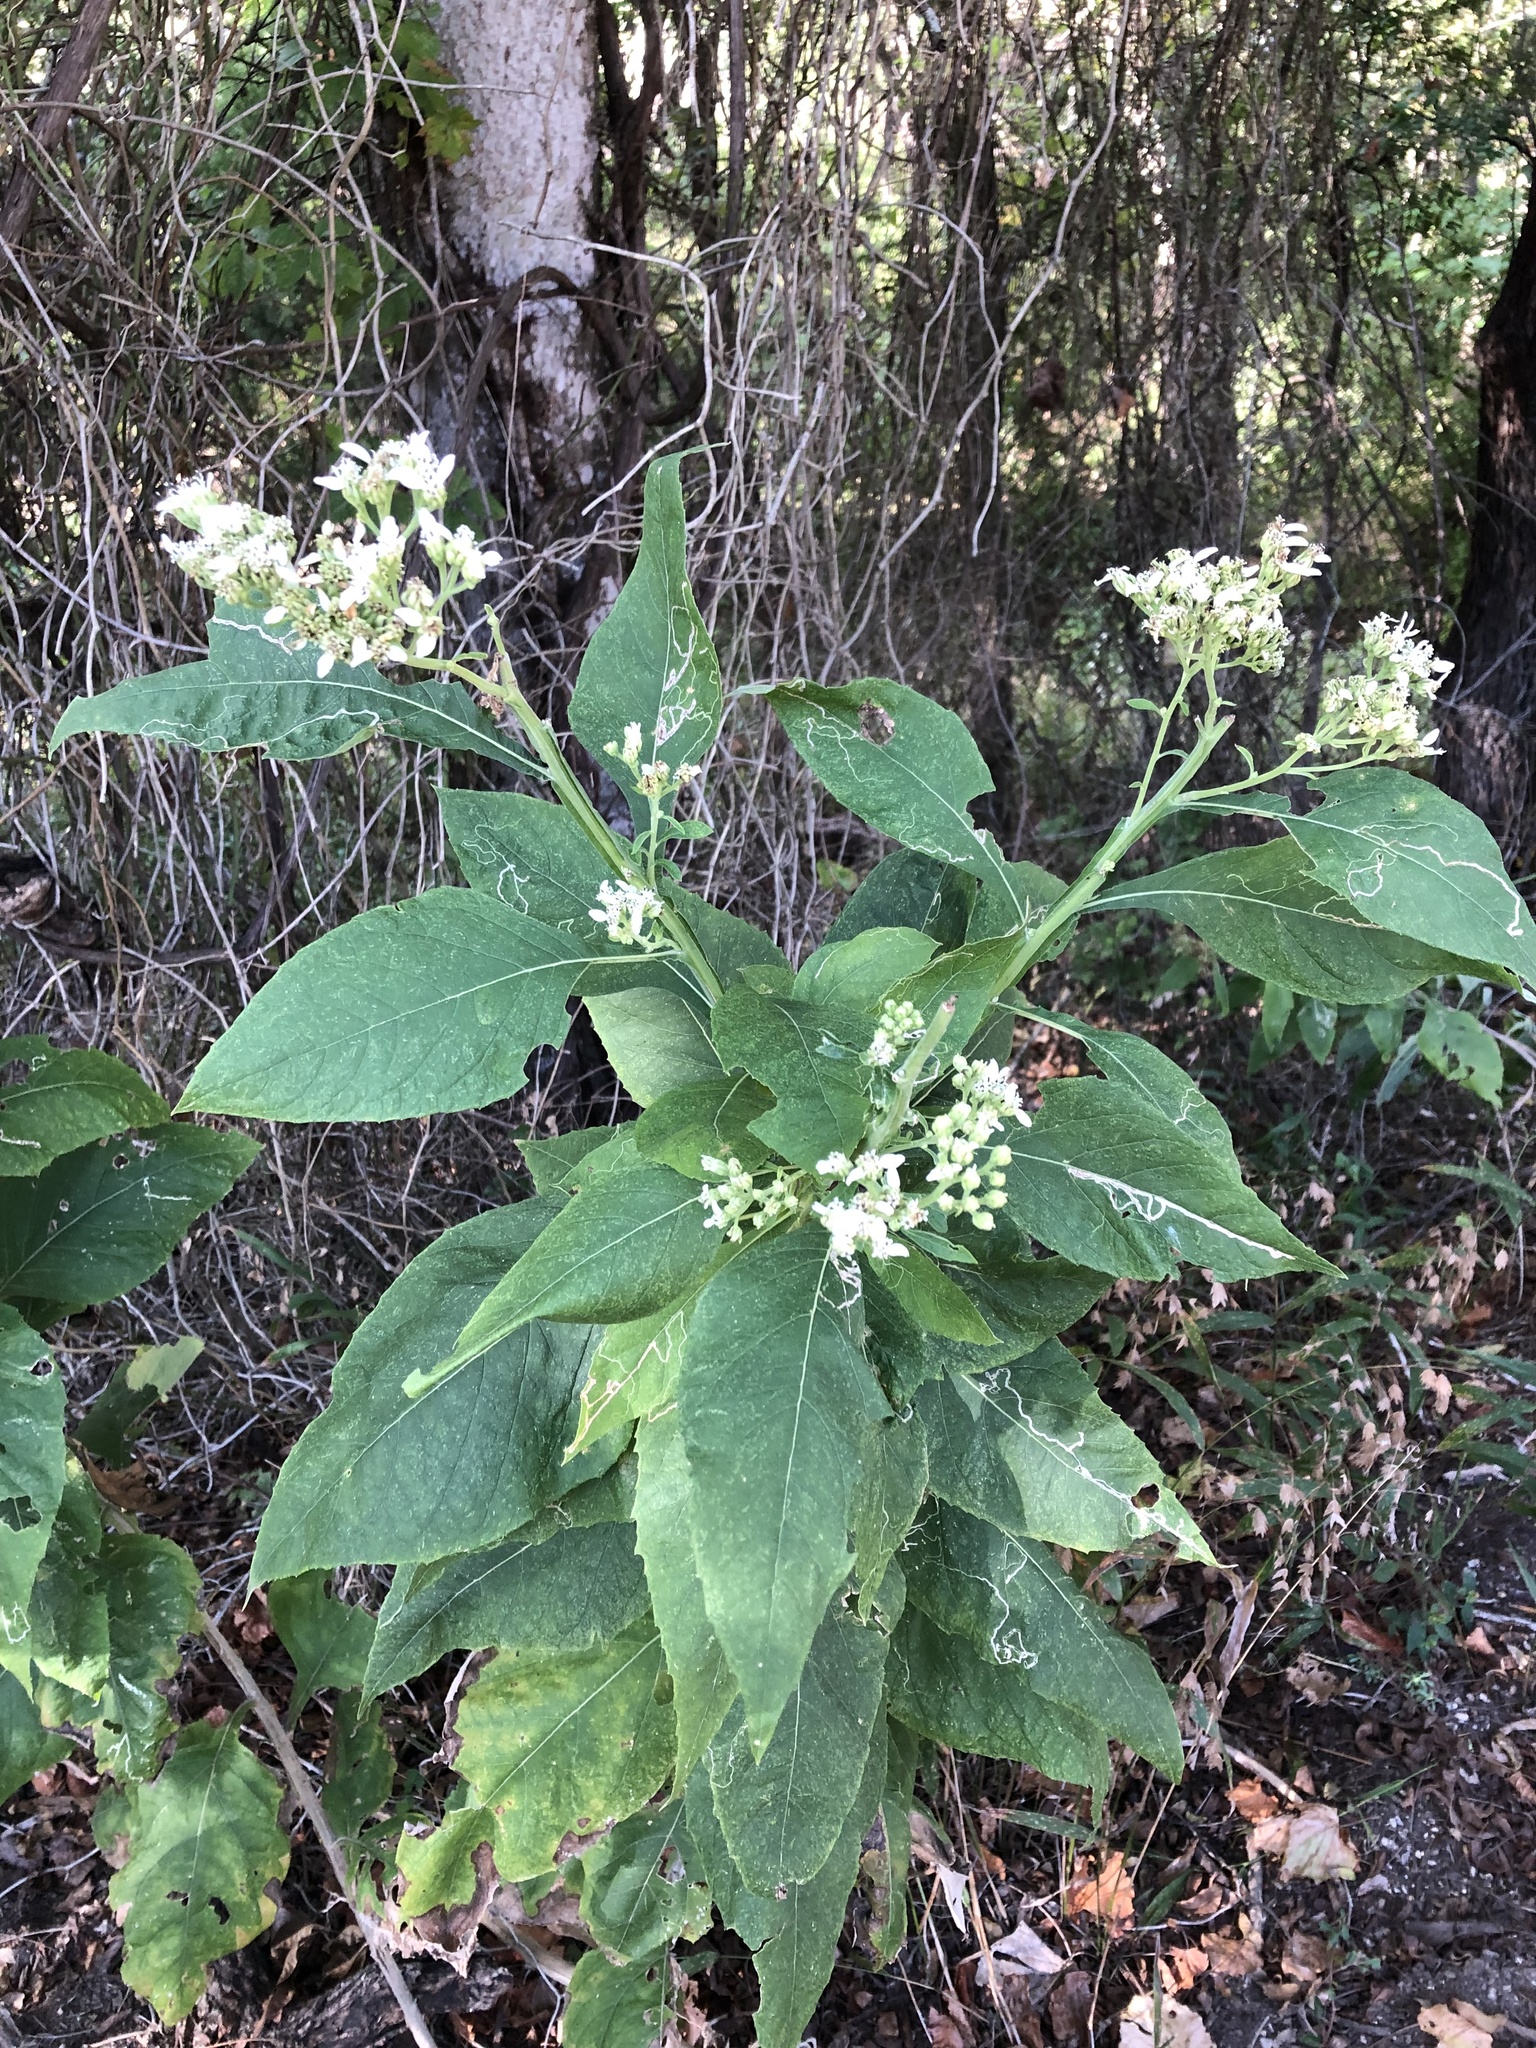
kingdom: Plantae
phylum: Tracheophyta
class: Magnoliopsida
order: Asterales
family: Asteraceae
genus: Verbesina
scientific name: Verbesina virginica
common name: Frostweed
